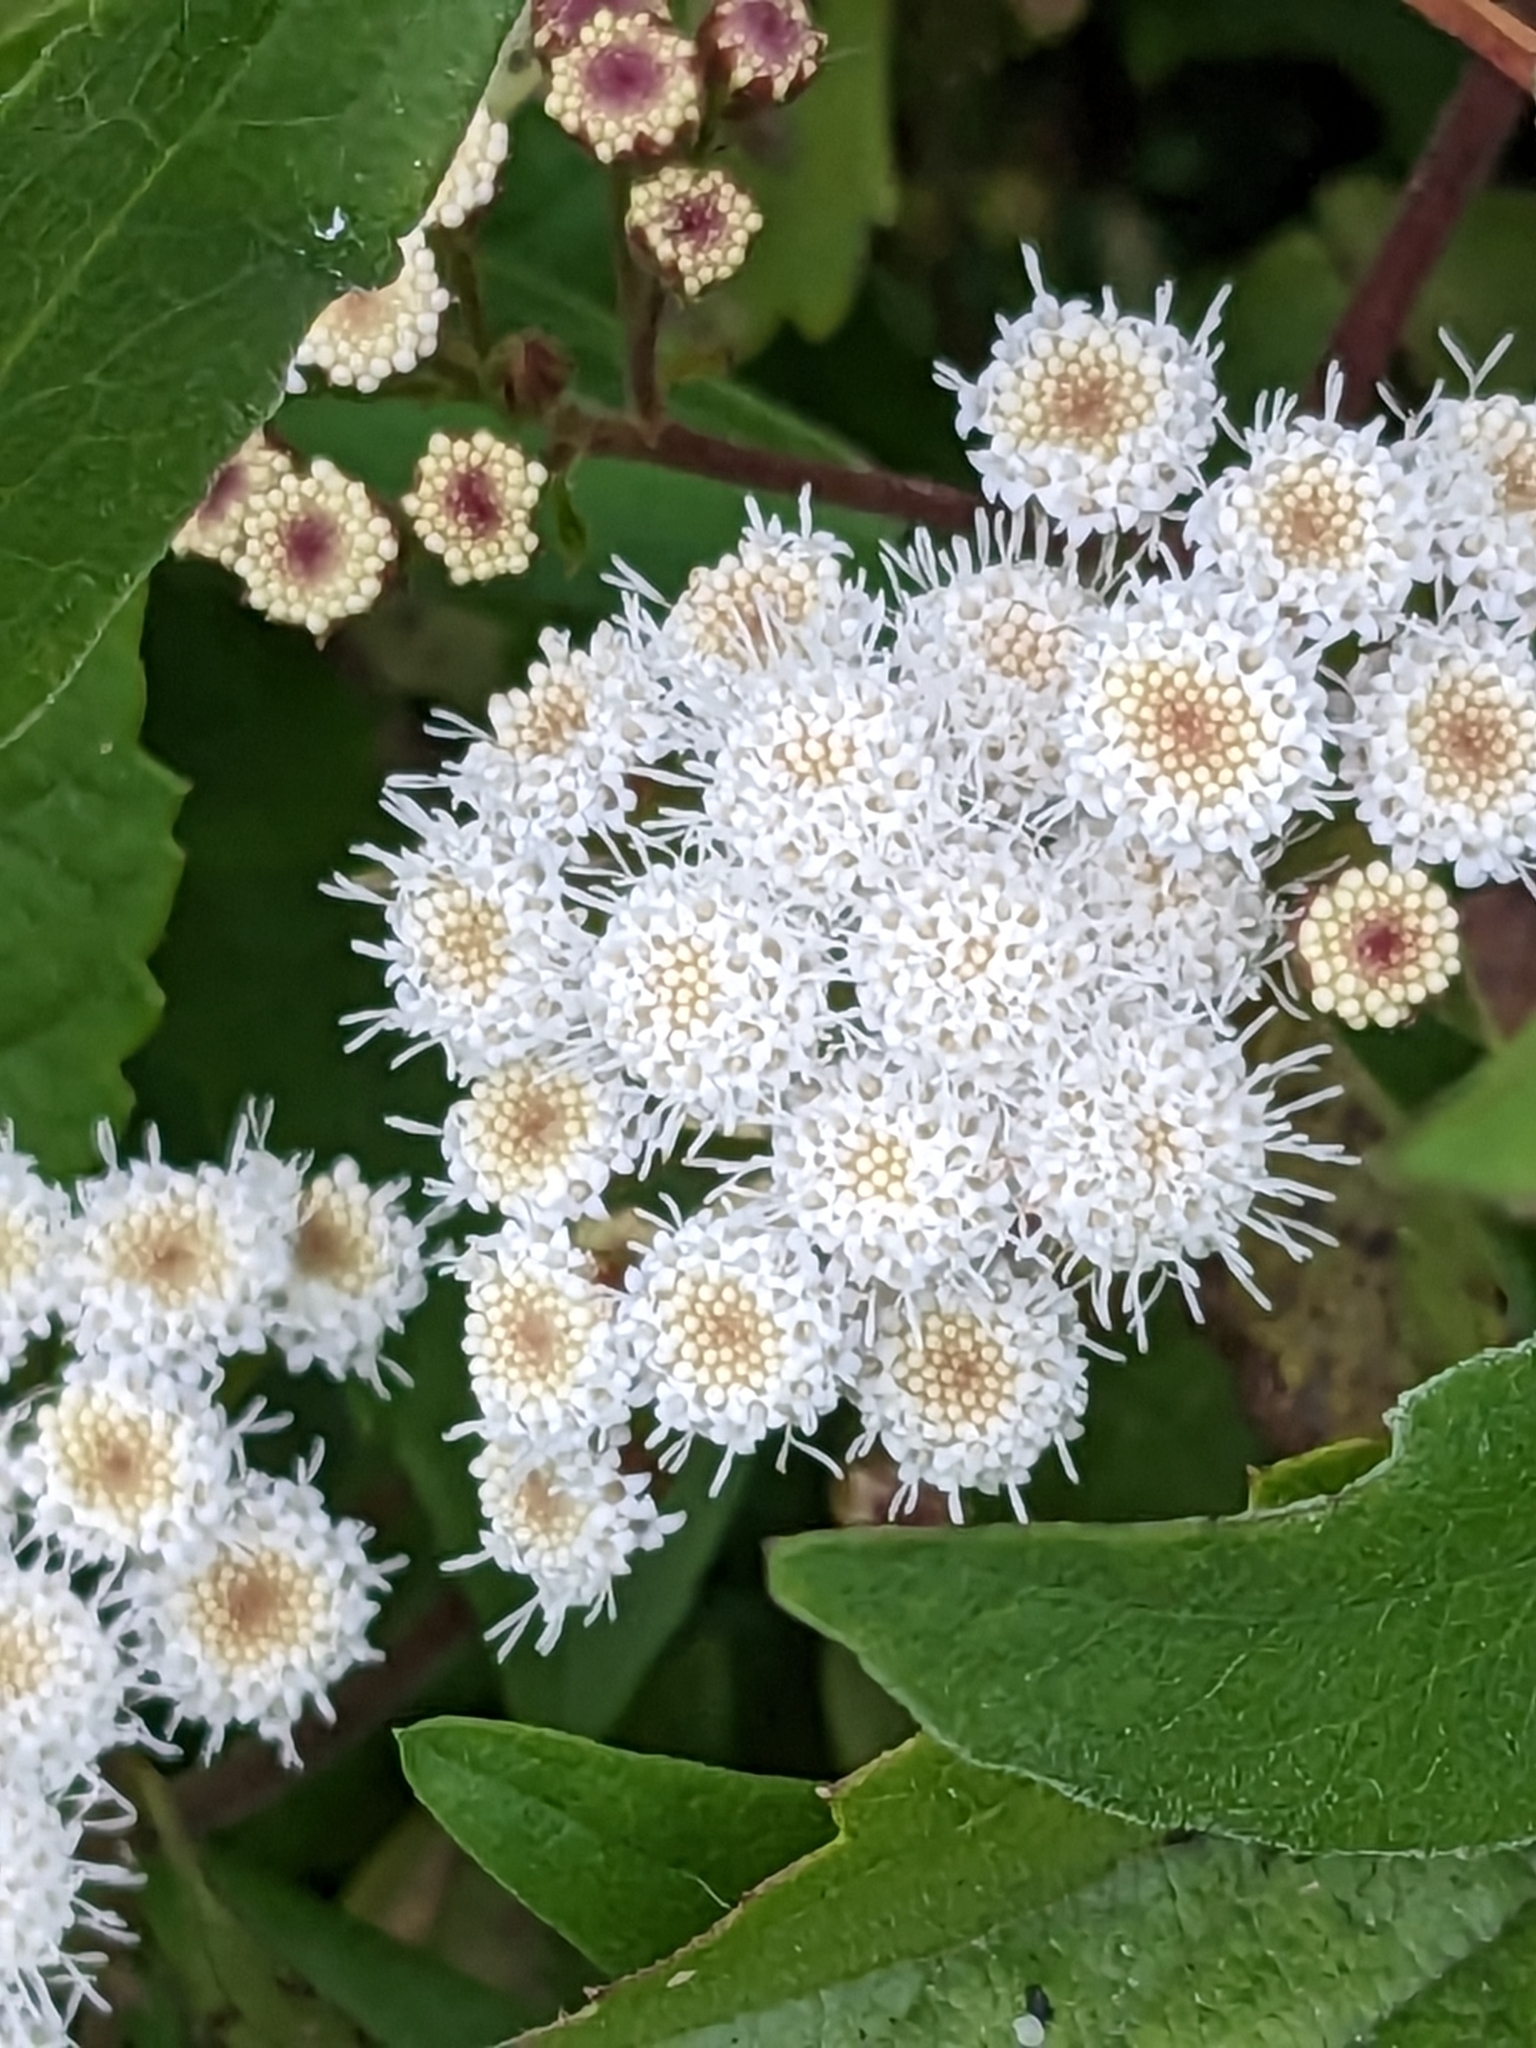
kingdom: Plantae
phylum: Tracheophyta
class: Magnoliopsida
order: Asterales
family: Asteraceae
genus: Ageratina
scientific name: Ageratina adenophora
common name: Sticky snakeroot
